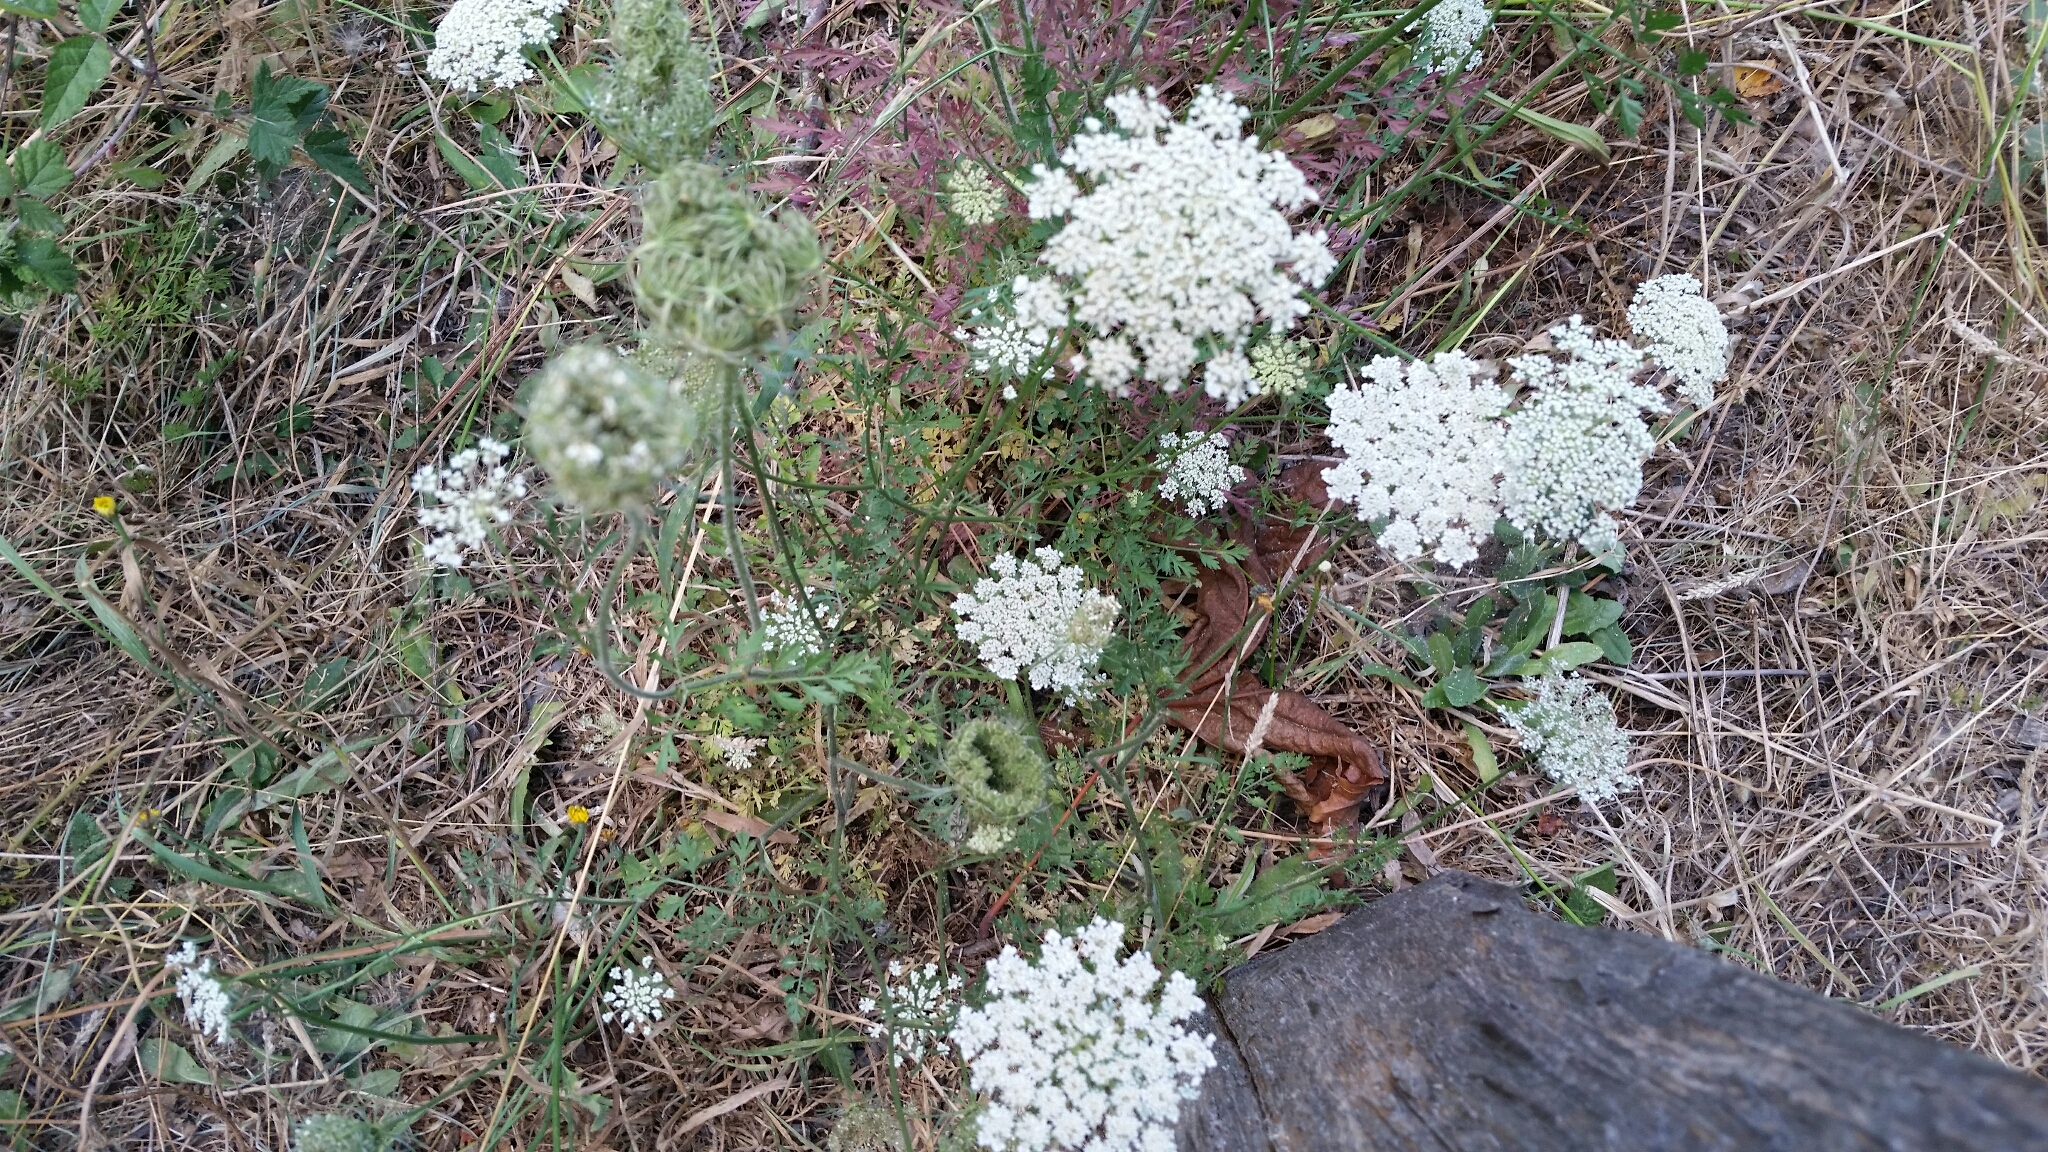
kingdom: Plantae
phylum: Tracheophyta
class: Magnoliopsida
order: Apiales
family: Apiaceae
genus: Daucus
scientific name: Daucus carota
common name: Wild carrot
